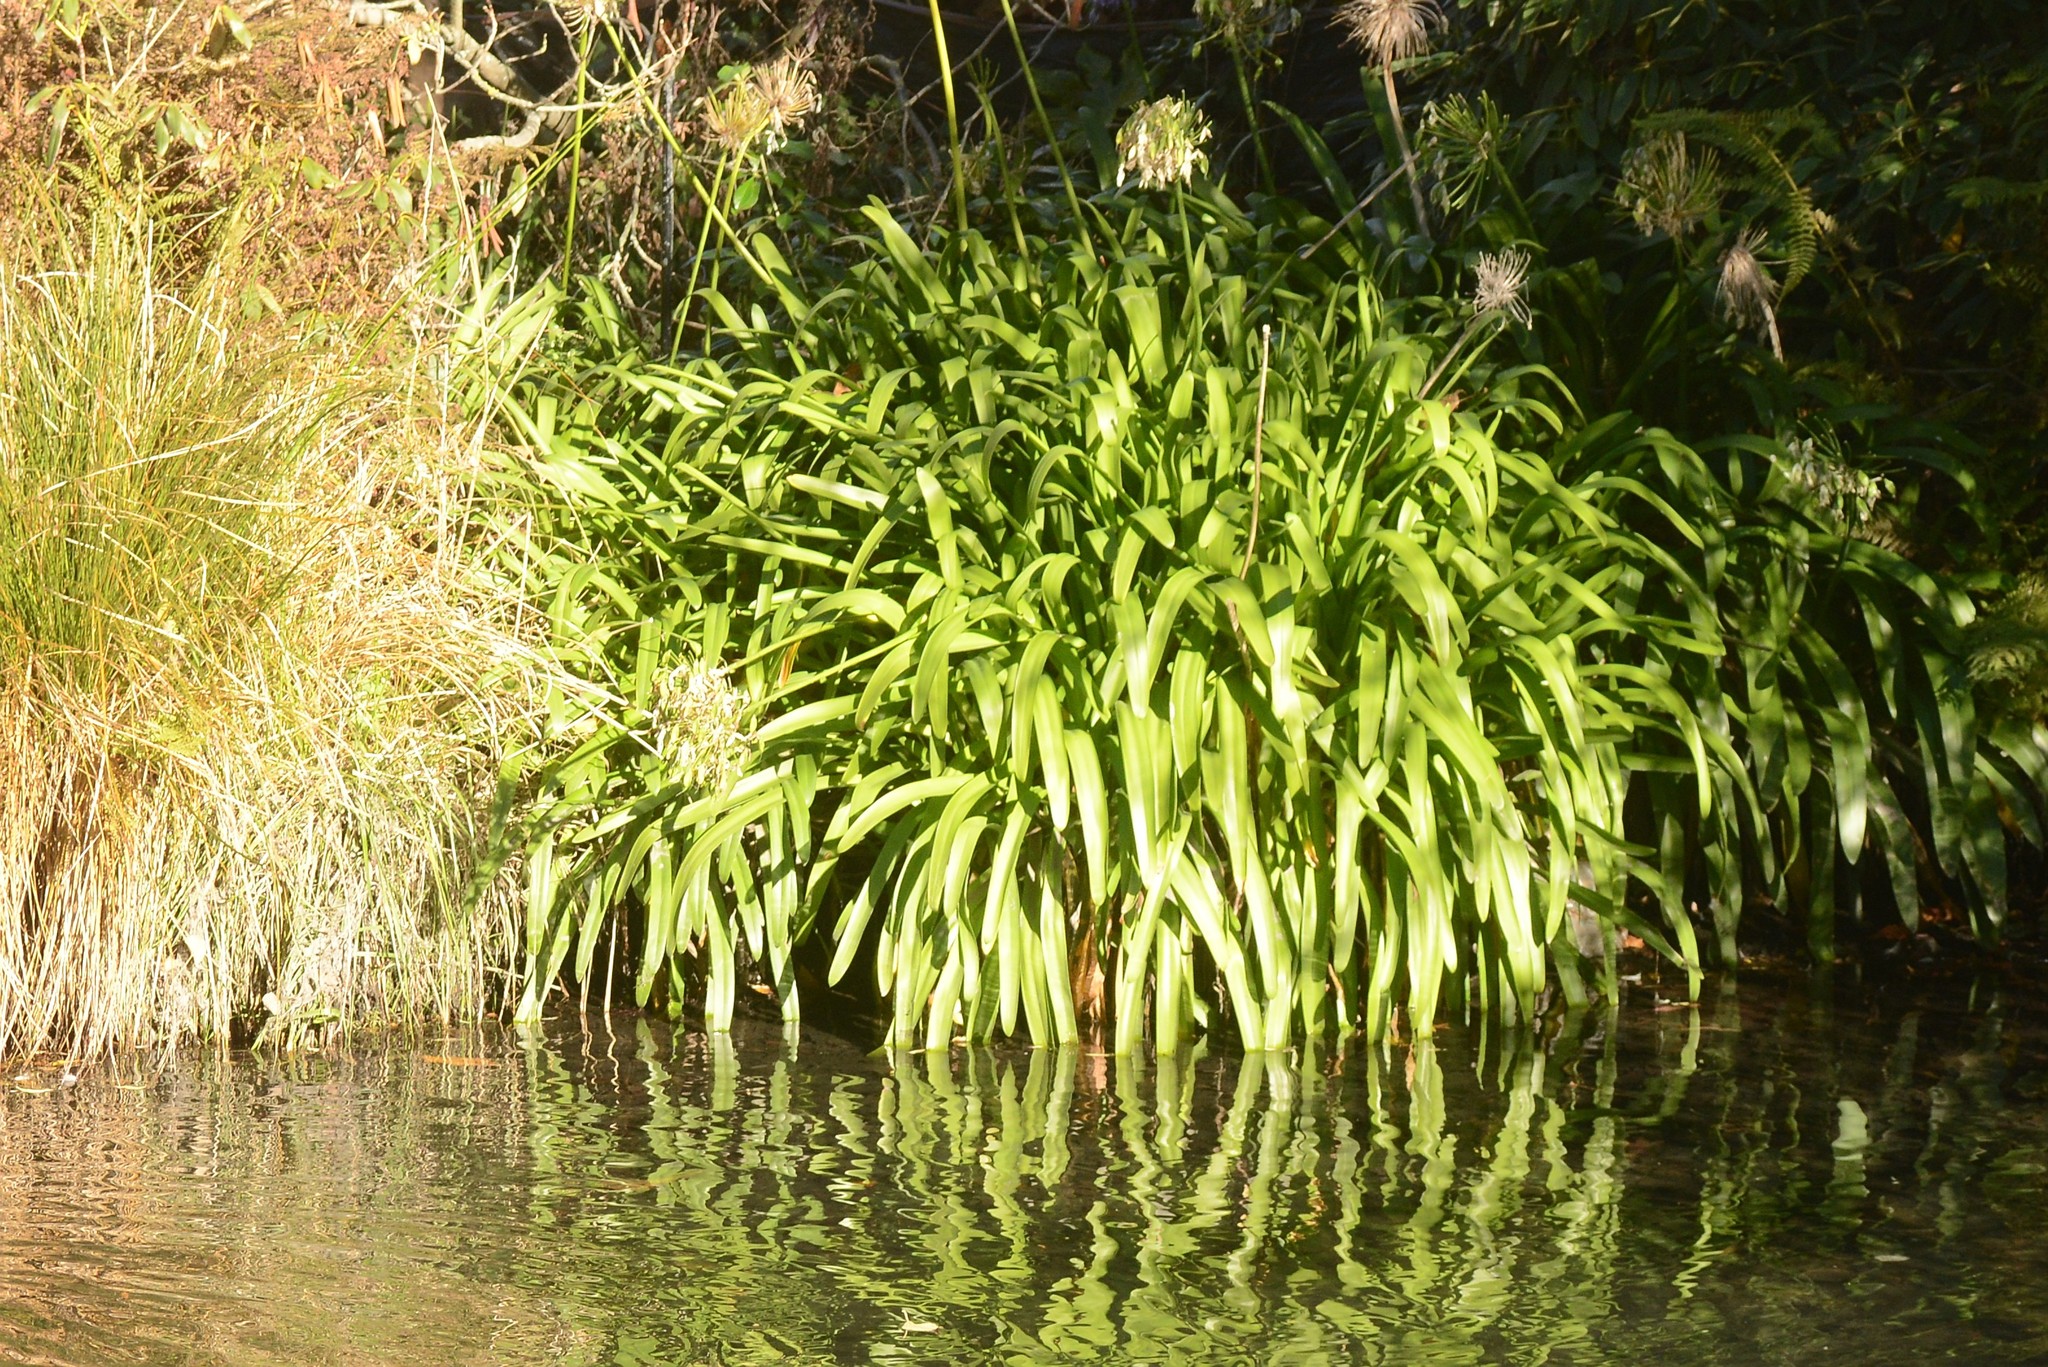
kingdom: Plantae
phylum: Tracheophyta
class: Liliopsida
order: Asparagales
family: Amaryllidaceae
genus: Agapanthus
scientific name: Agapanthus praecox
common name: African-lily
